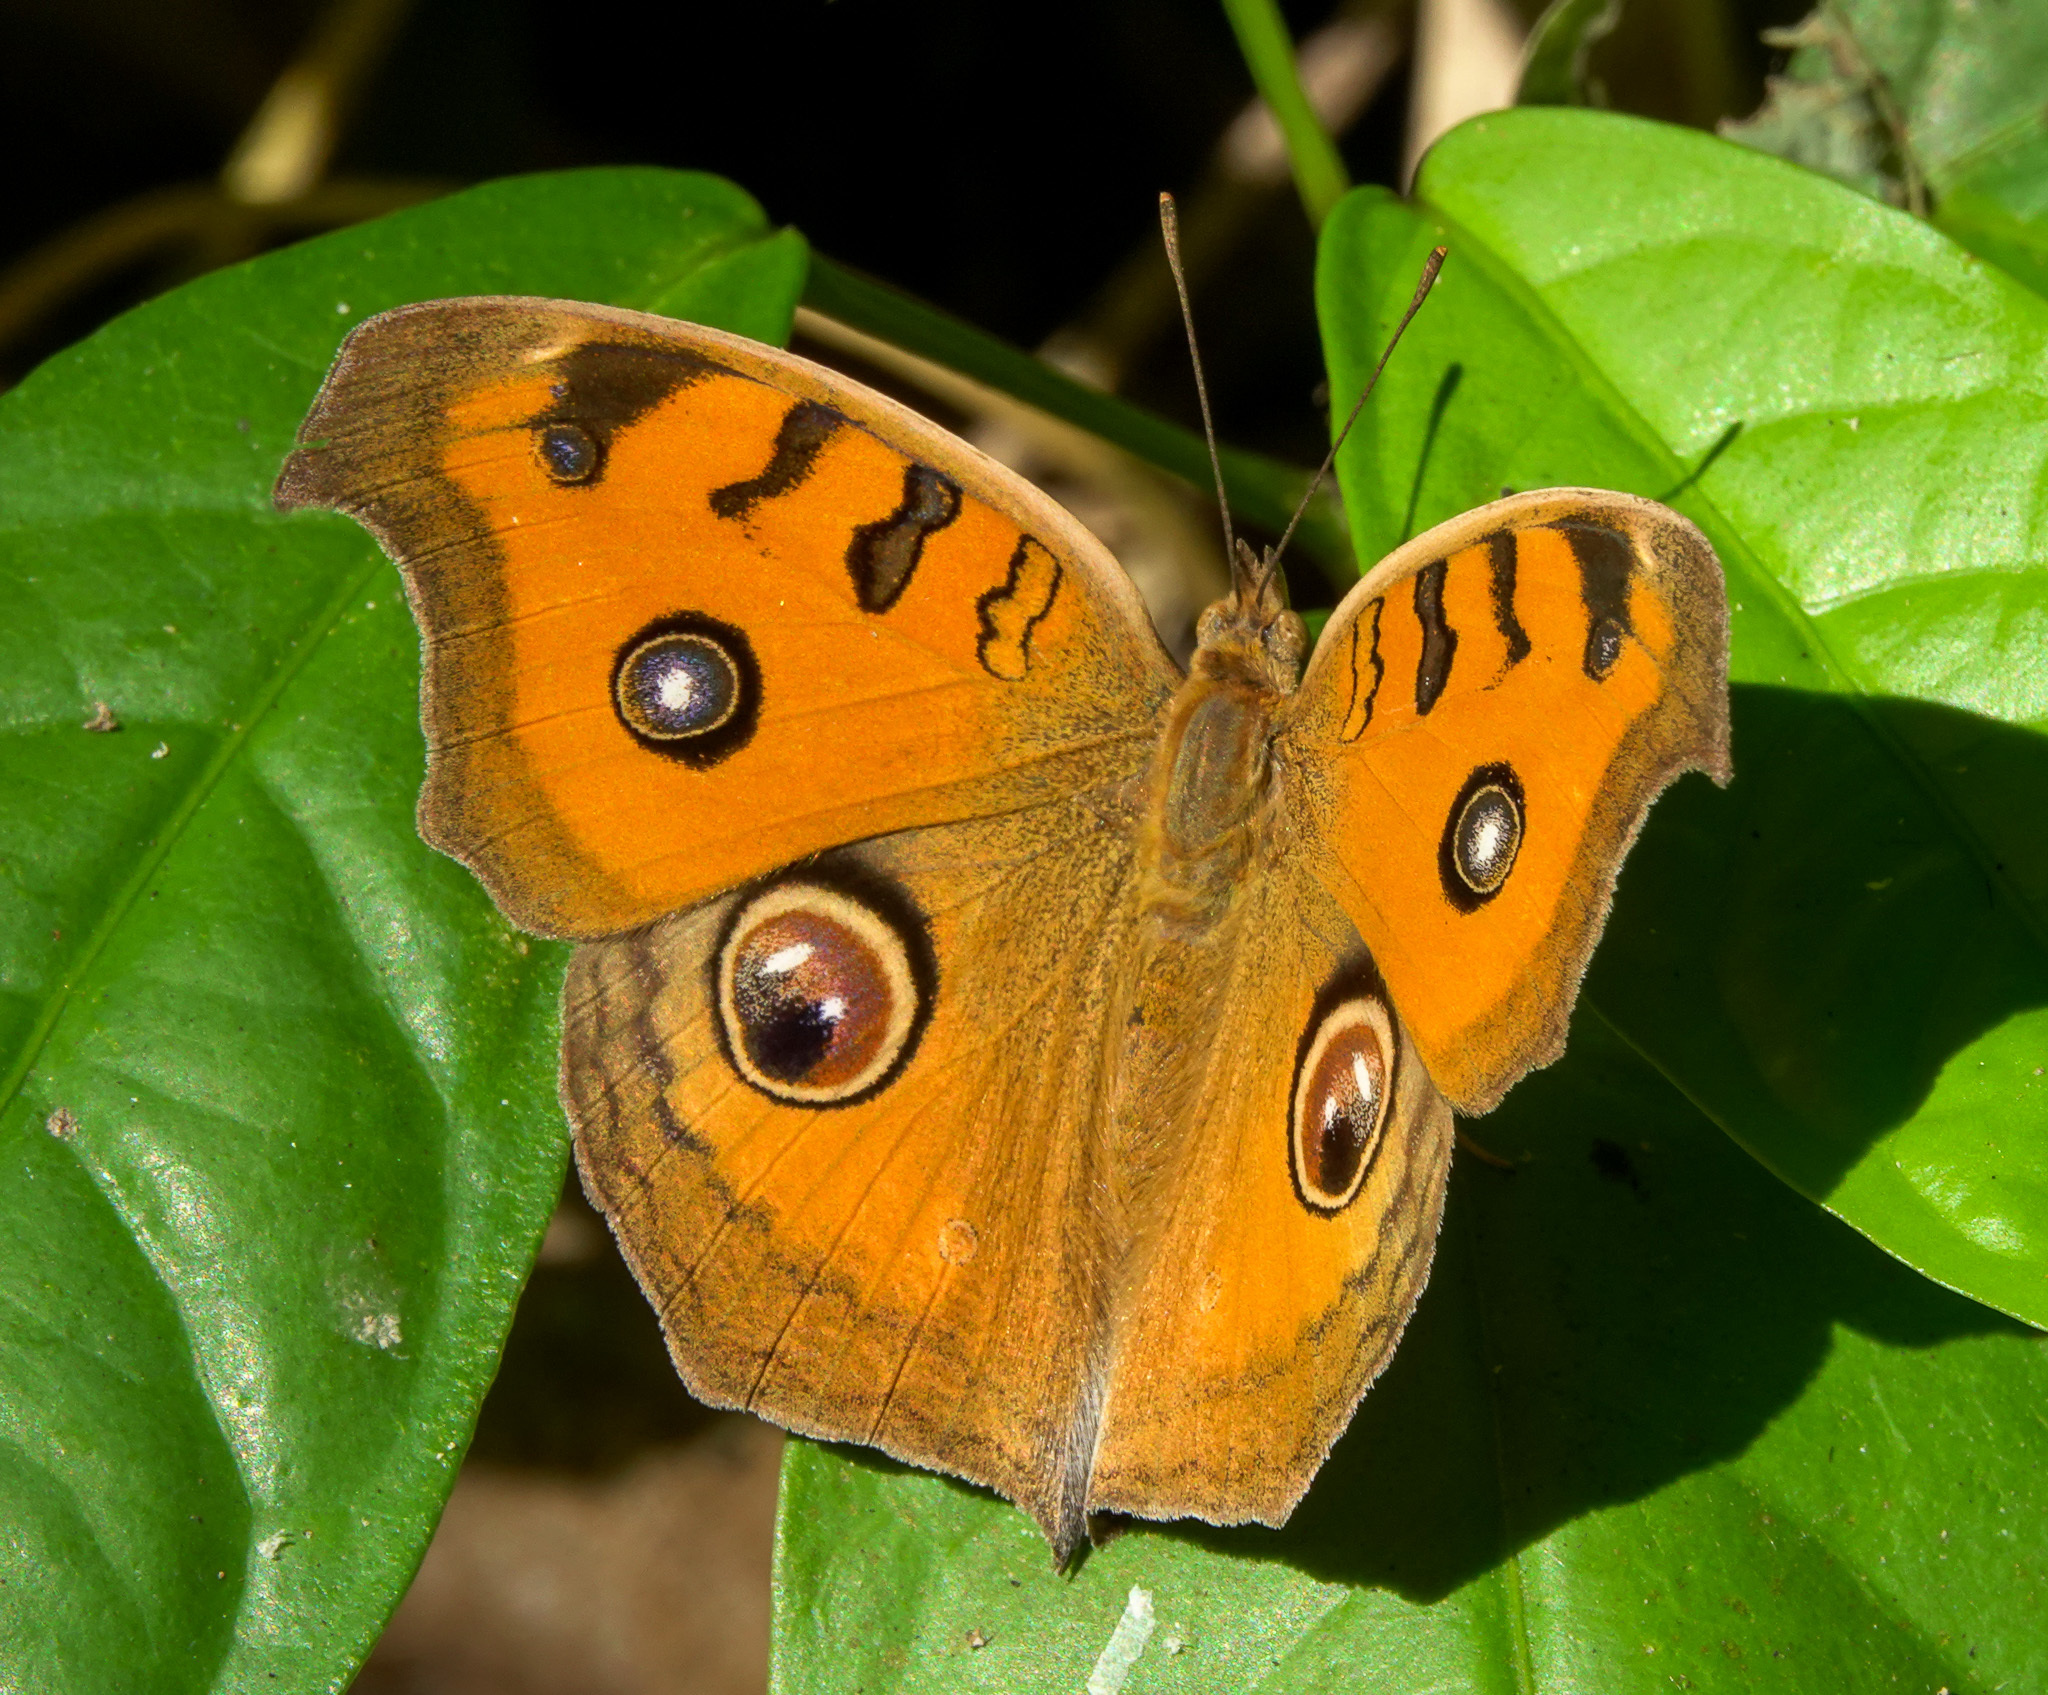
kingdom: Animalia
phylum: Arthropoda
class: Insecta
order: Lepidoptera
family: Nymphalidae
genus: Junonia
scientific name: Junonia almana
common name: Peacock pansy
